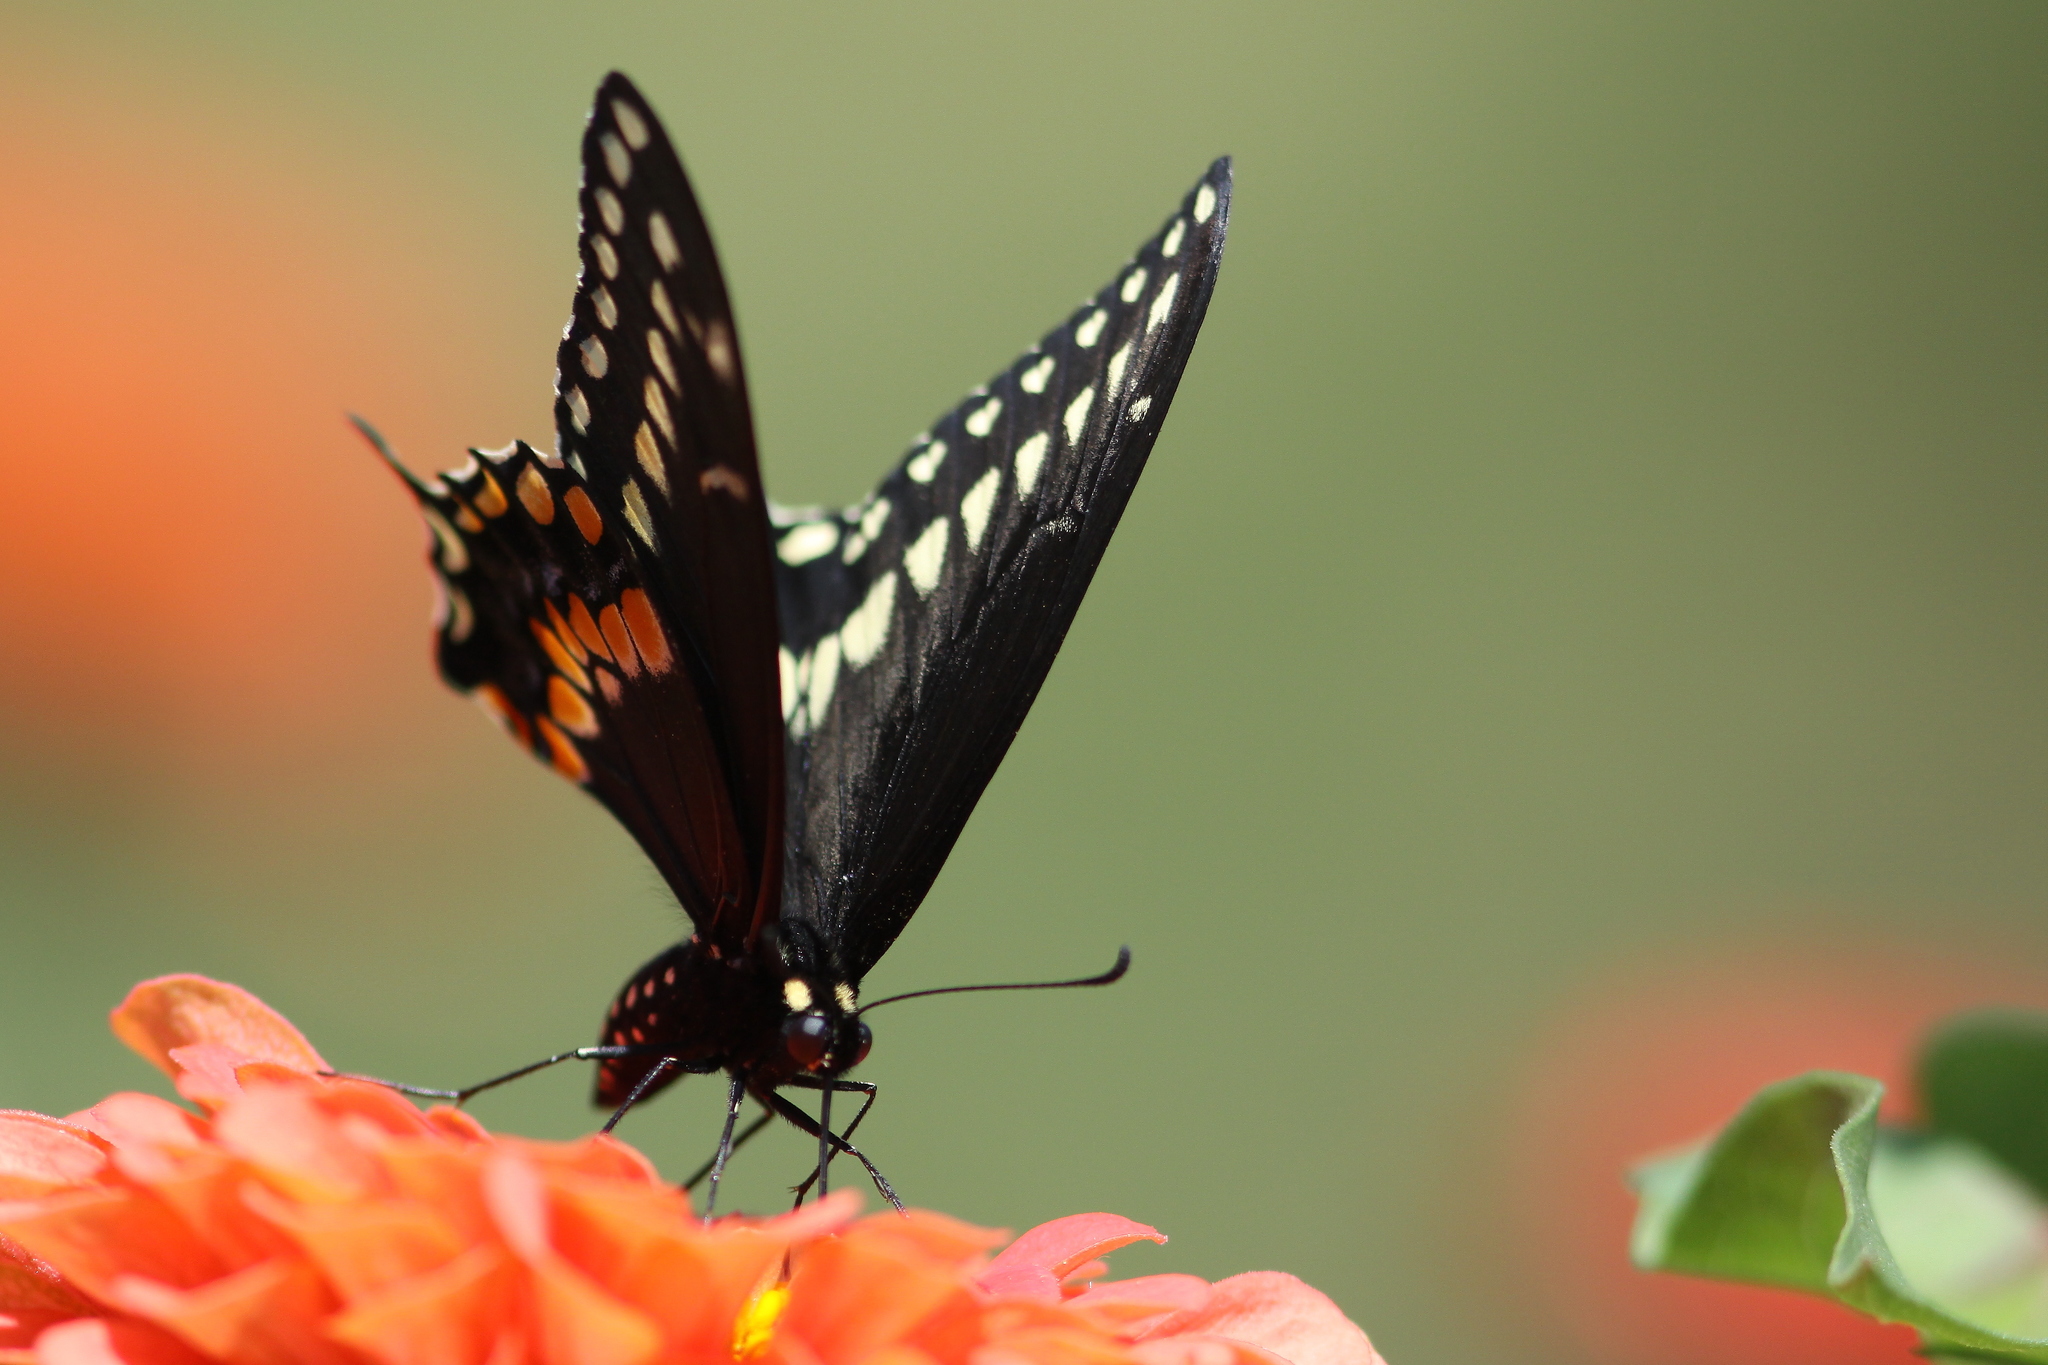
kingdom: Animalia
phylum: Arthropoda
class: Insecta
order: Lepidoptera
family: Papilionidae
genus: Papilio
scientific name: Papilio polyxenes
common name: Black swallowtail
